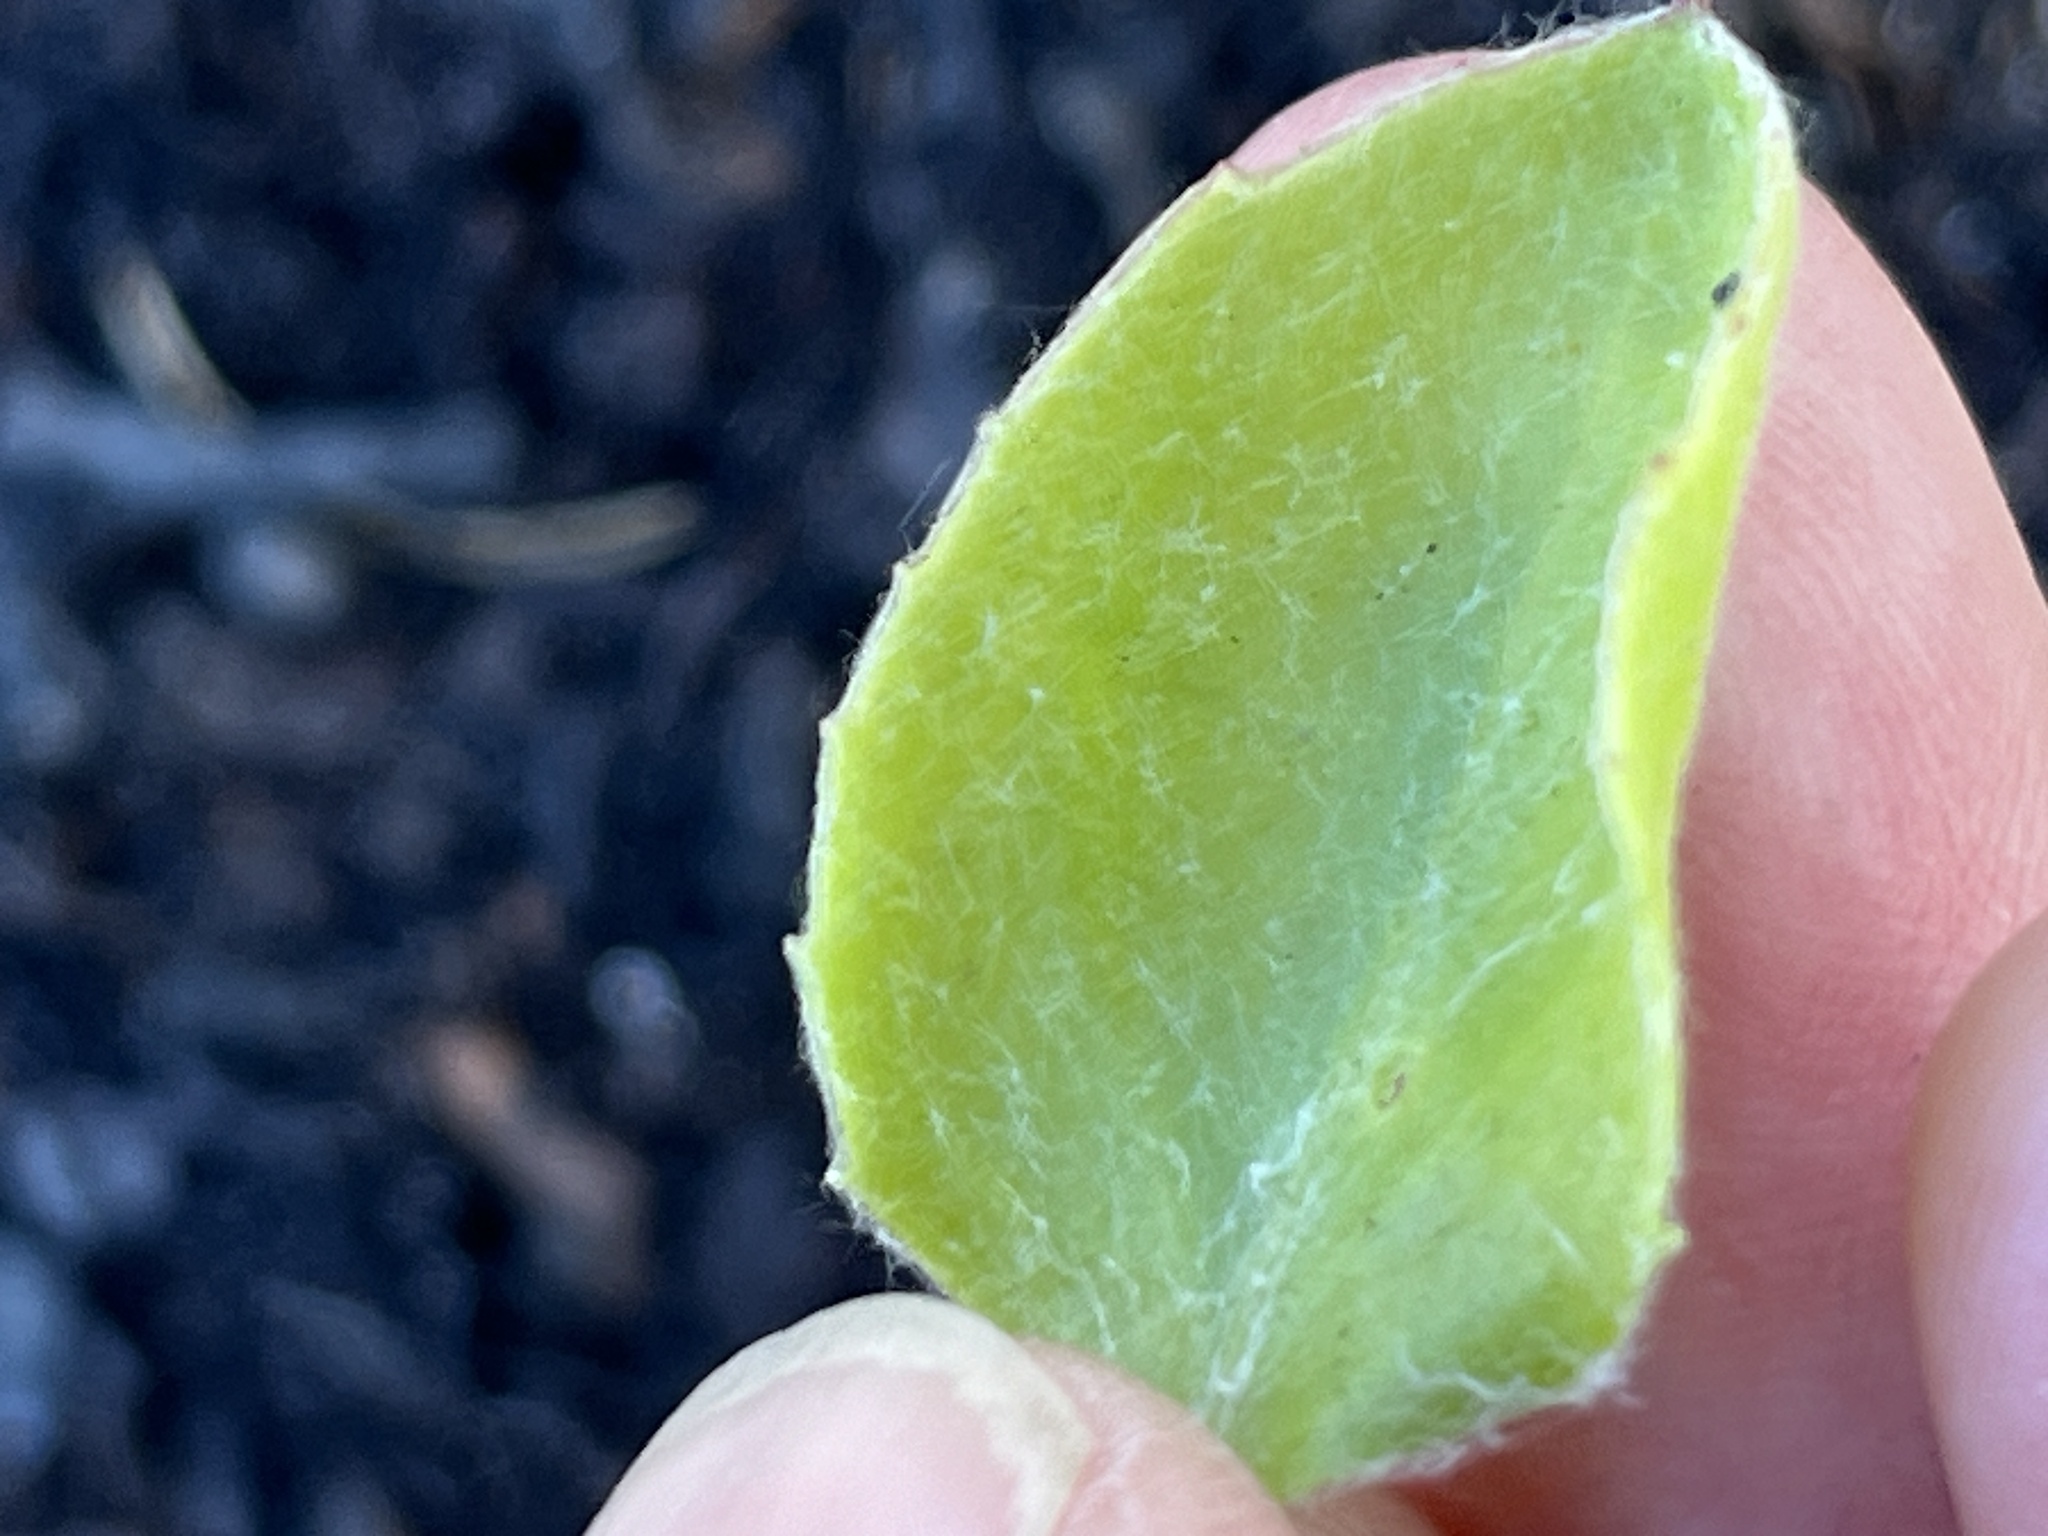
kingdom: Plantae
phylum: Tracheophyta
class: Magnoliopsida
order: Asterales
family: Asteraceae
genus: Osteospermum
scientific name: Osteospermum moniliferum
